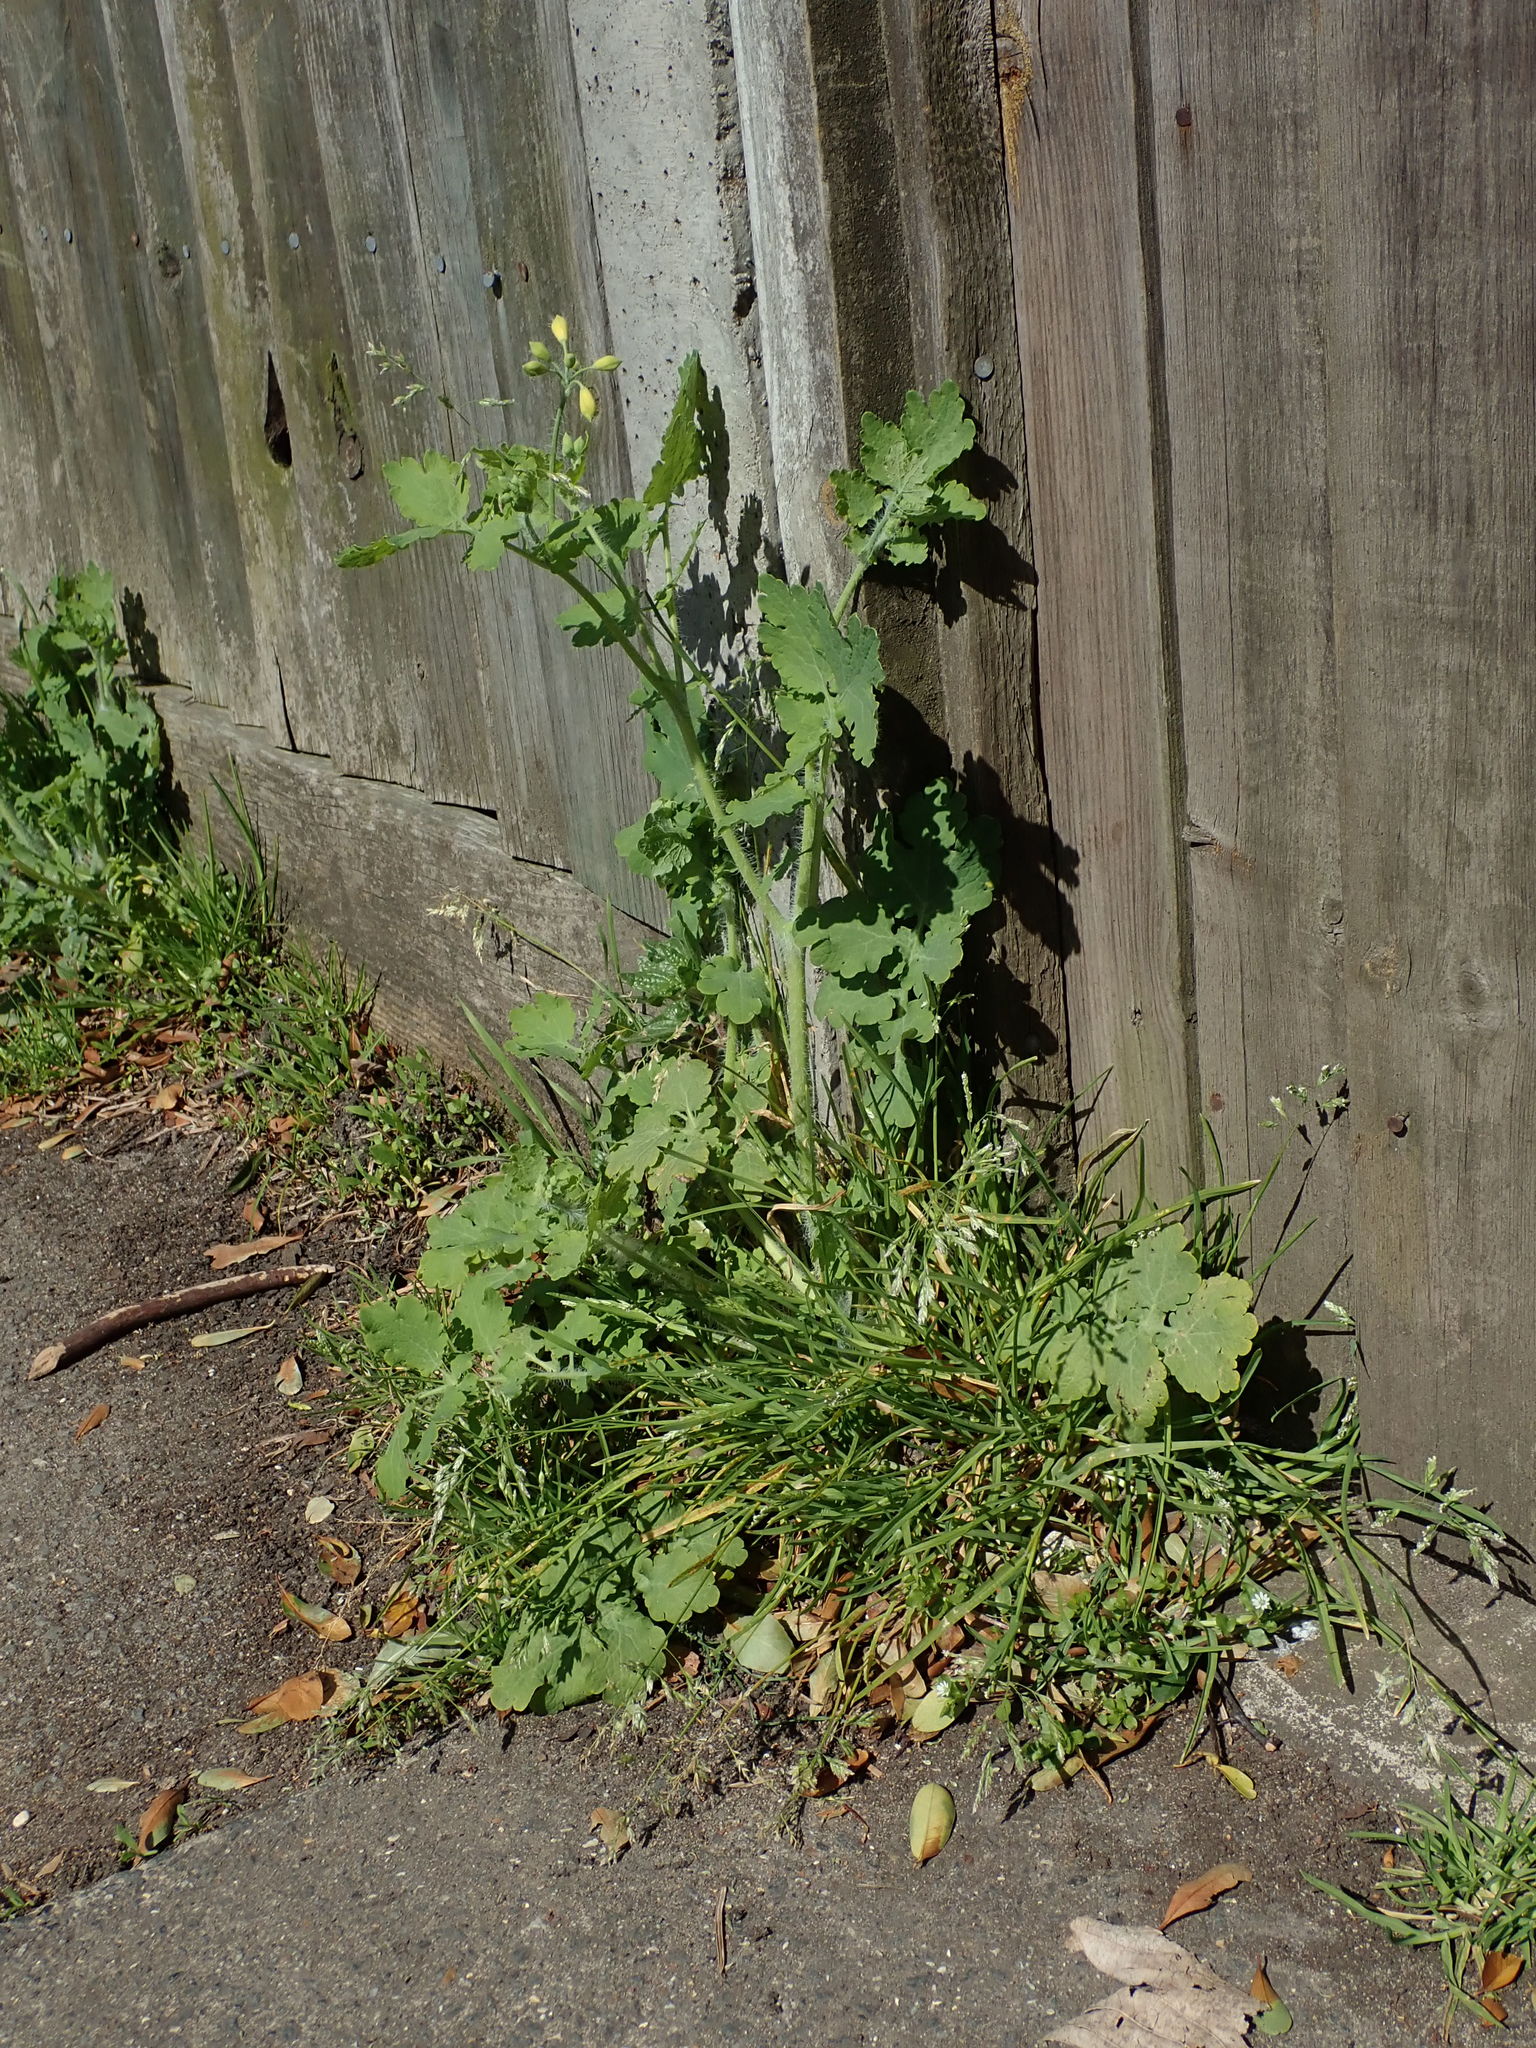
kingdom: Plantae
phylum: Tracheophyta
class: Magnoliopsida
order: Ranunculales
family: Papaveraceae
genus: Chelidonium
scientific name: Chelidonium majus
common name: Greater celandine
